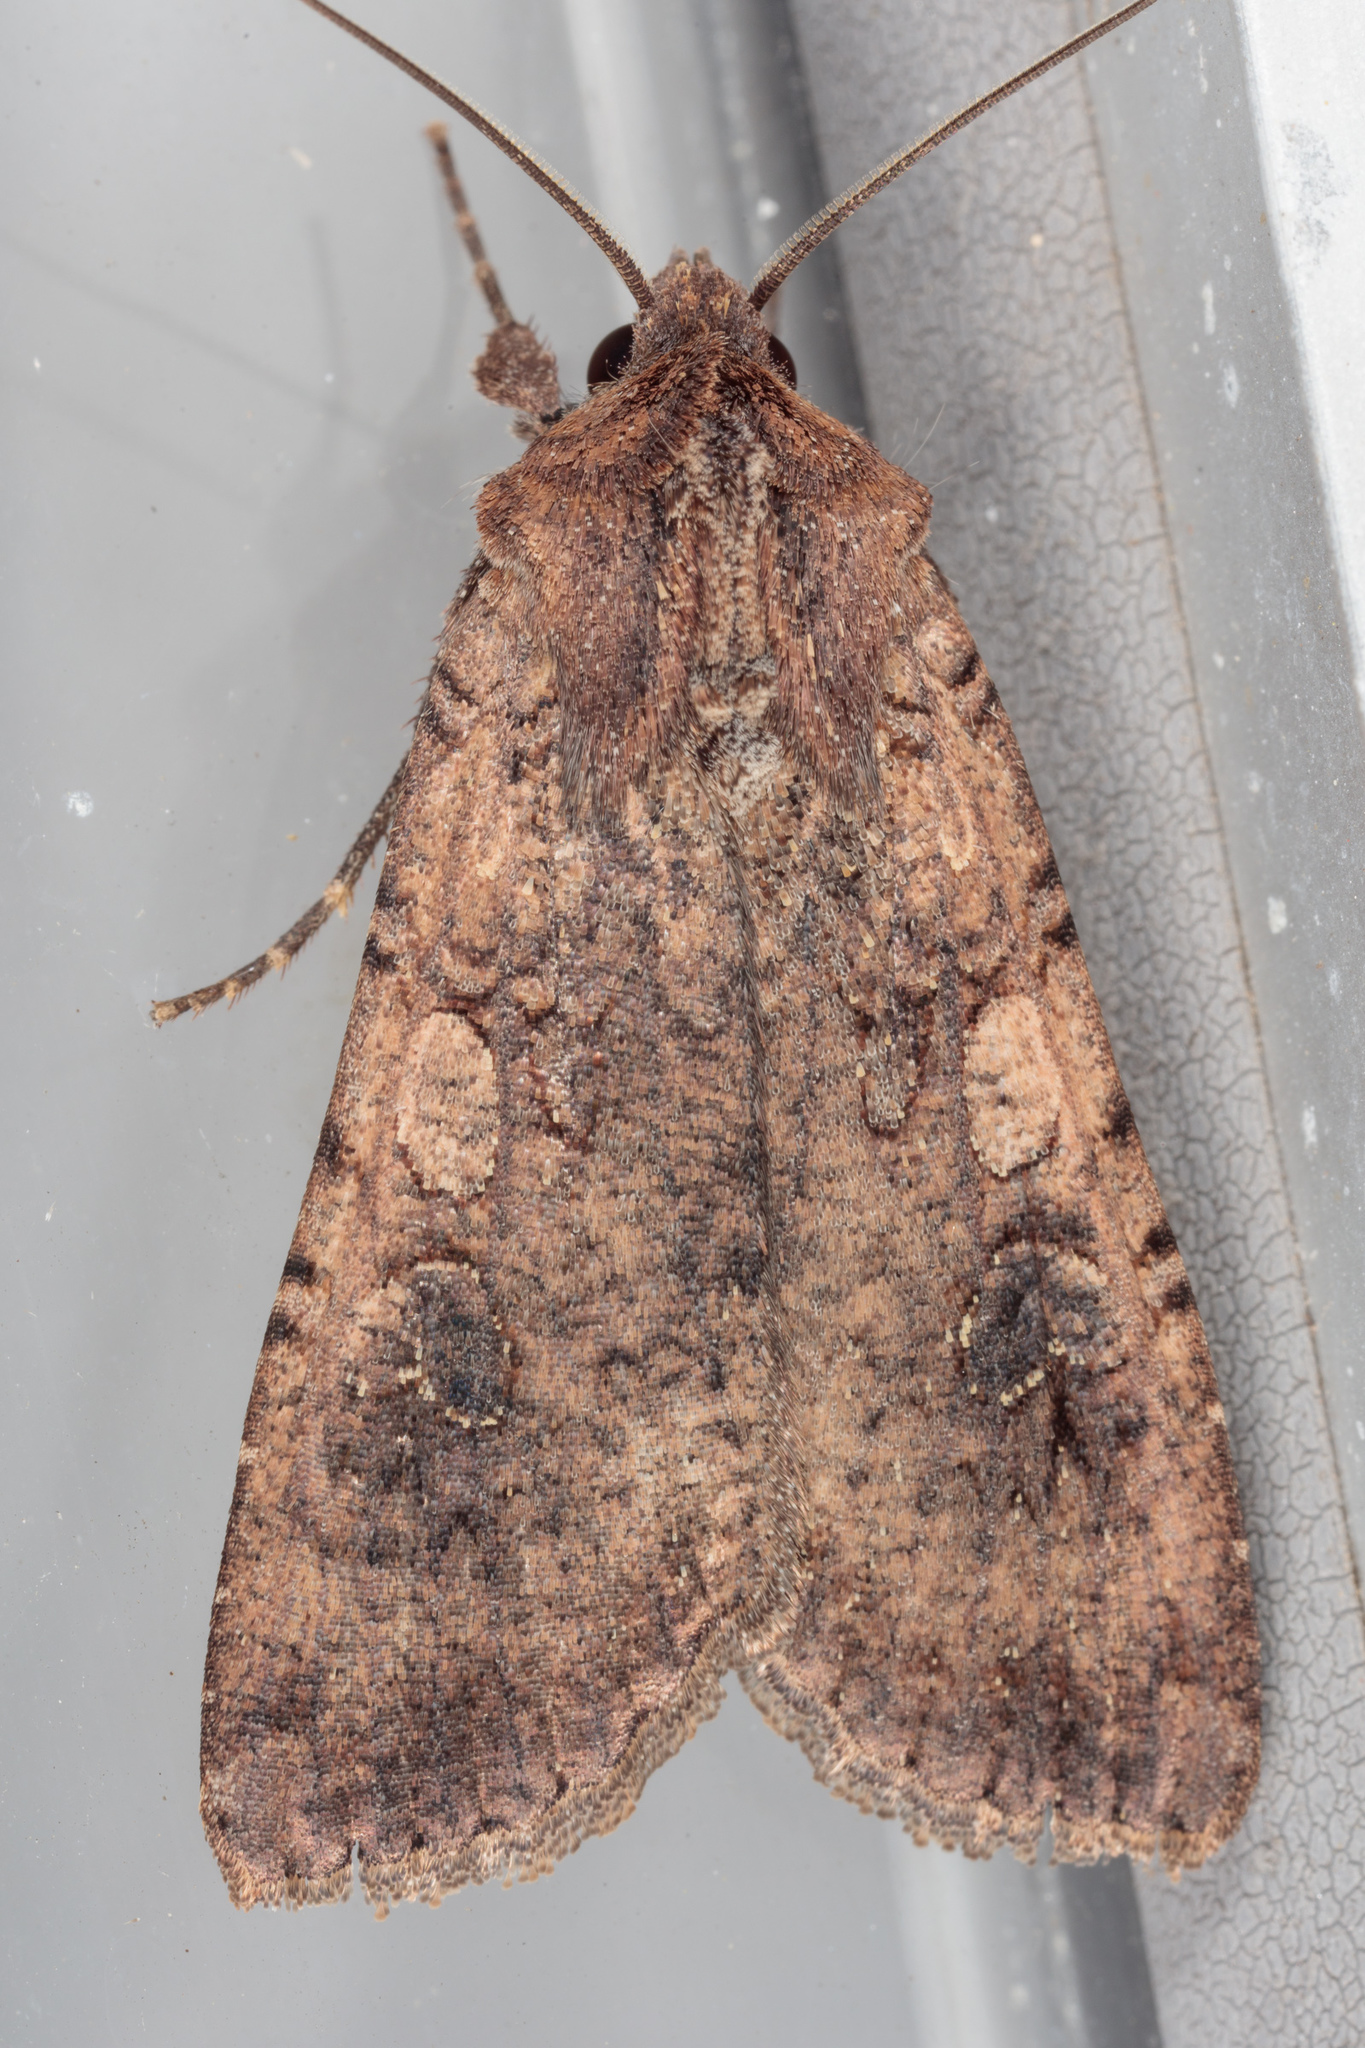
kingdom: Animalia
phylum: Arthropoda
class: Insecta
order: Lepidoptera
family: Noctuidae
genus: Peridroma
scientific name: Peridroma saucia
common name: Pearly underwing
